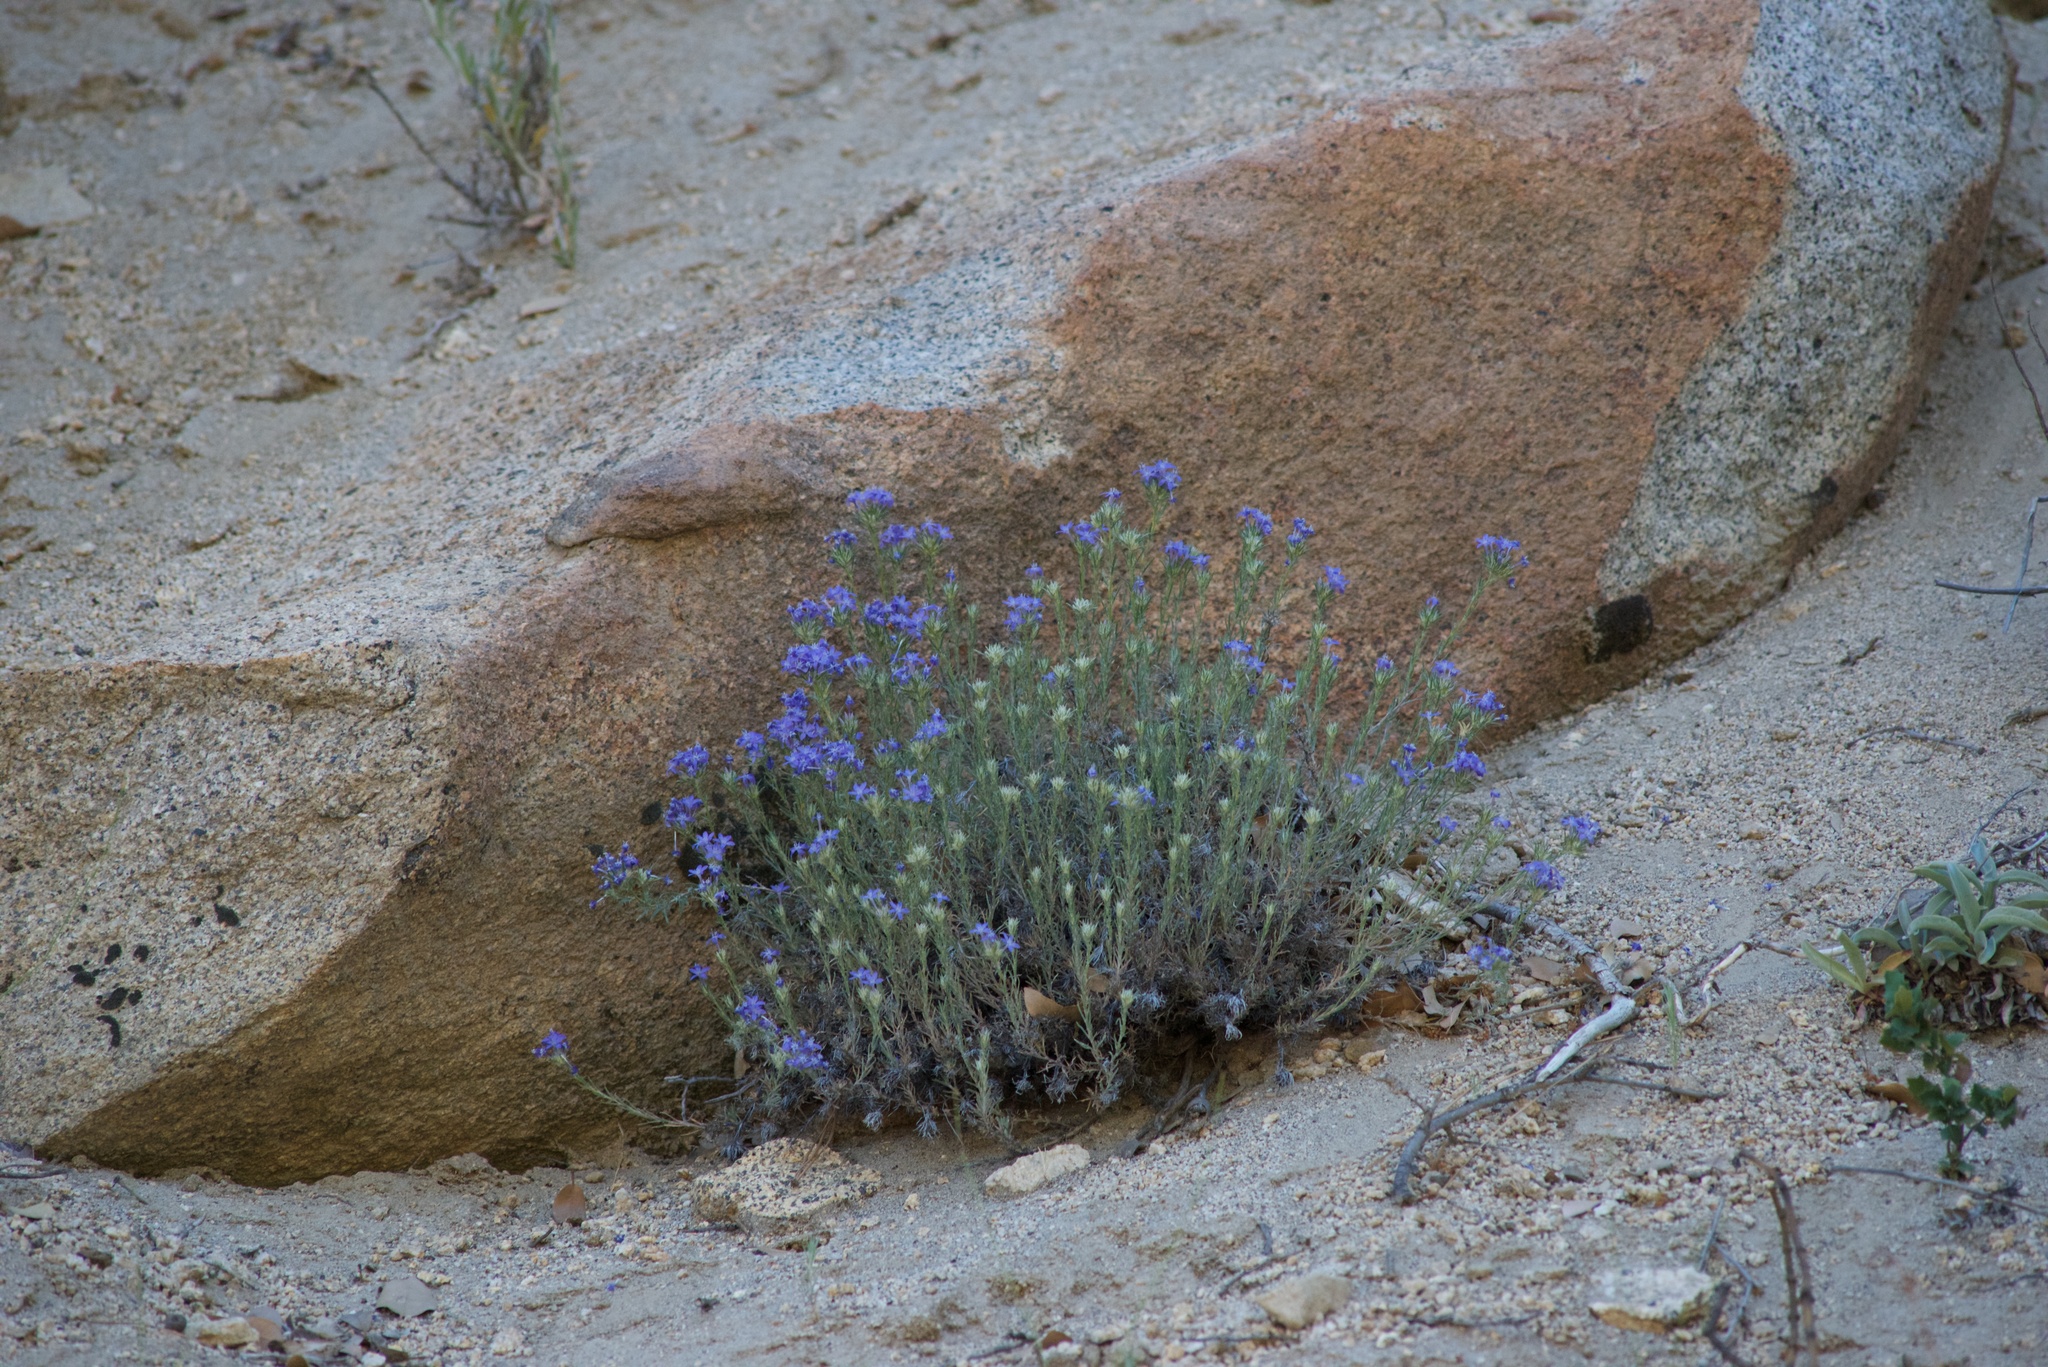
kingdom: Plantae
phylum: Tracheophyta
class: Magnoliopsida
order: Ericales
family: Polemoniaceae
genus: Eriastrum
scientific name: Eriastrum densifolium
